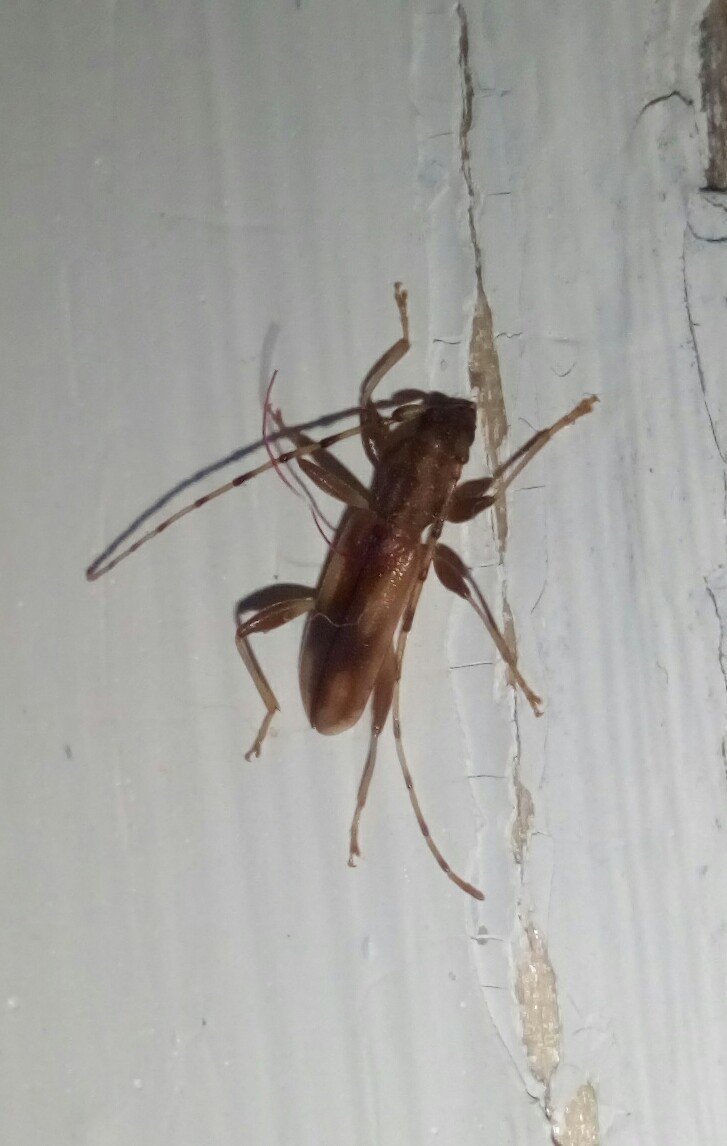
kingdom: Animalia
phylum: Arthropoda
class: Insecta
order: Coleoptera
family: Cerambycidae
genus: Curius
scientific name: Curius dentatus
